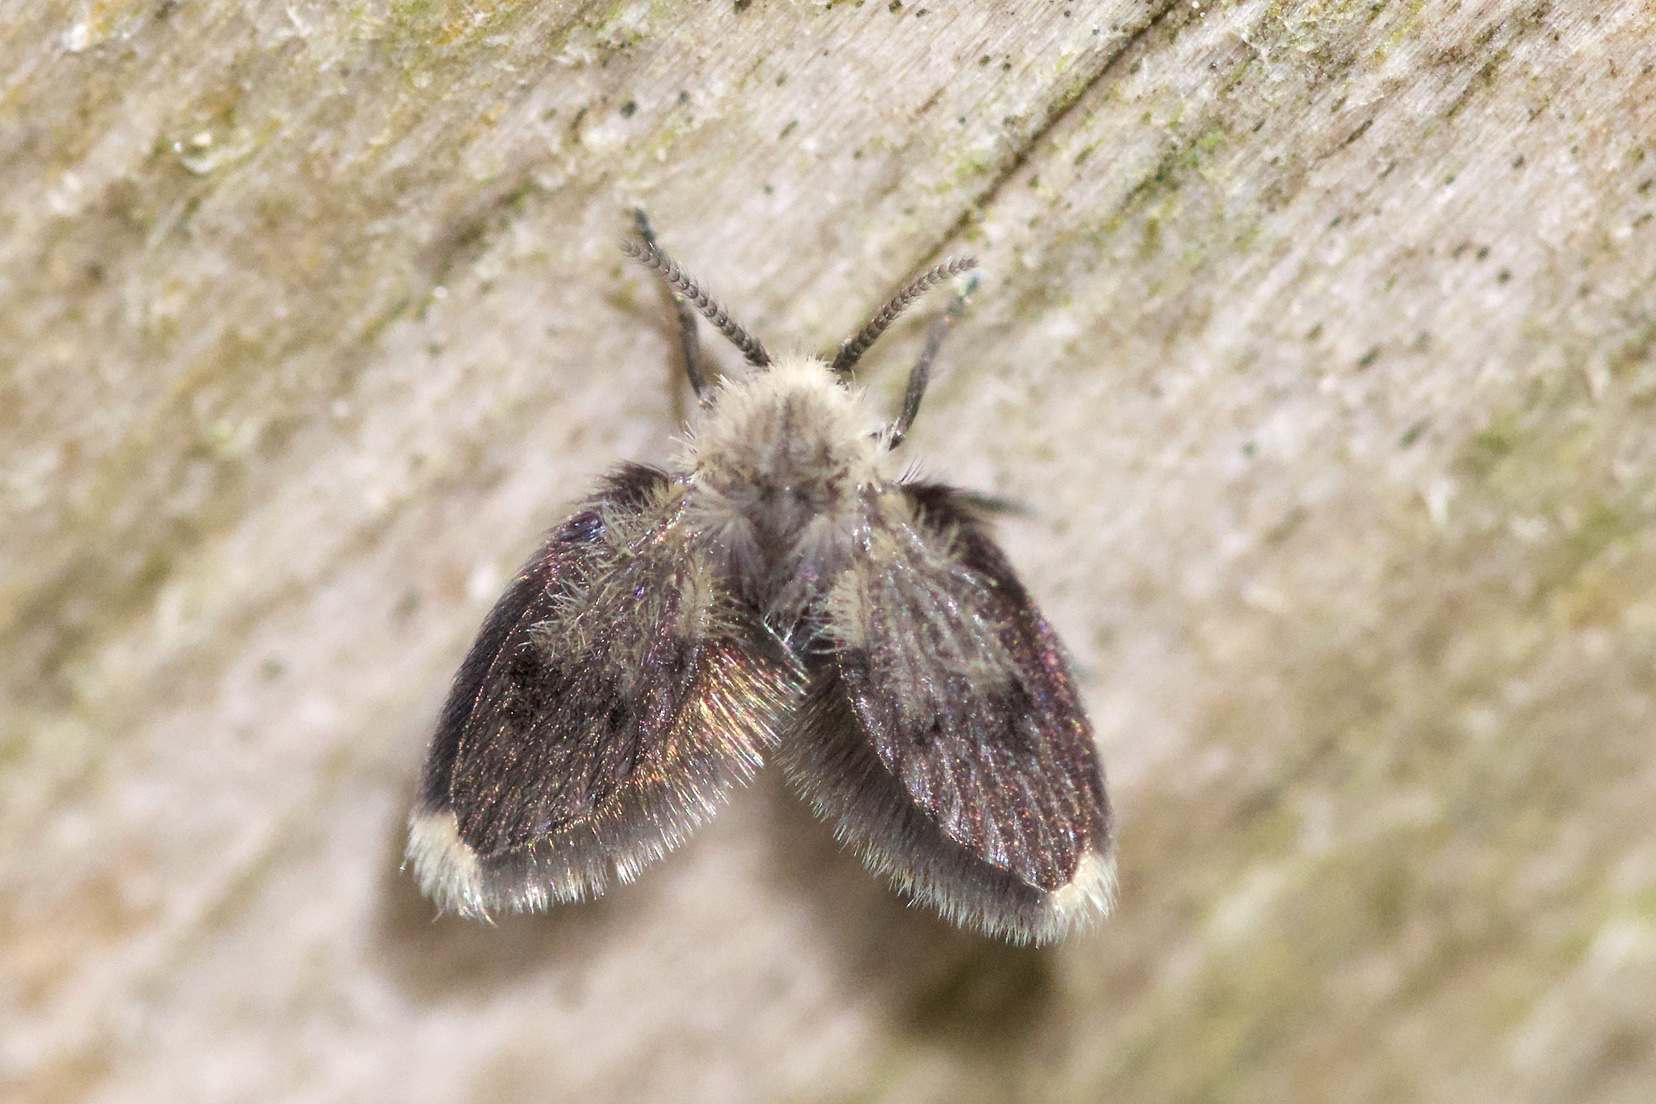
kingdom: Animalia
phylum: Arthropoda
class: Insecta
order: Diptera
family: Psychodidae
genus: Lepiseodina
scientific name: Lepiseodina
